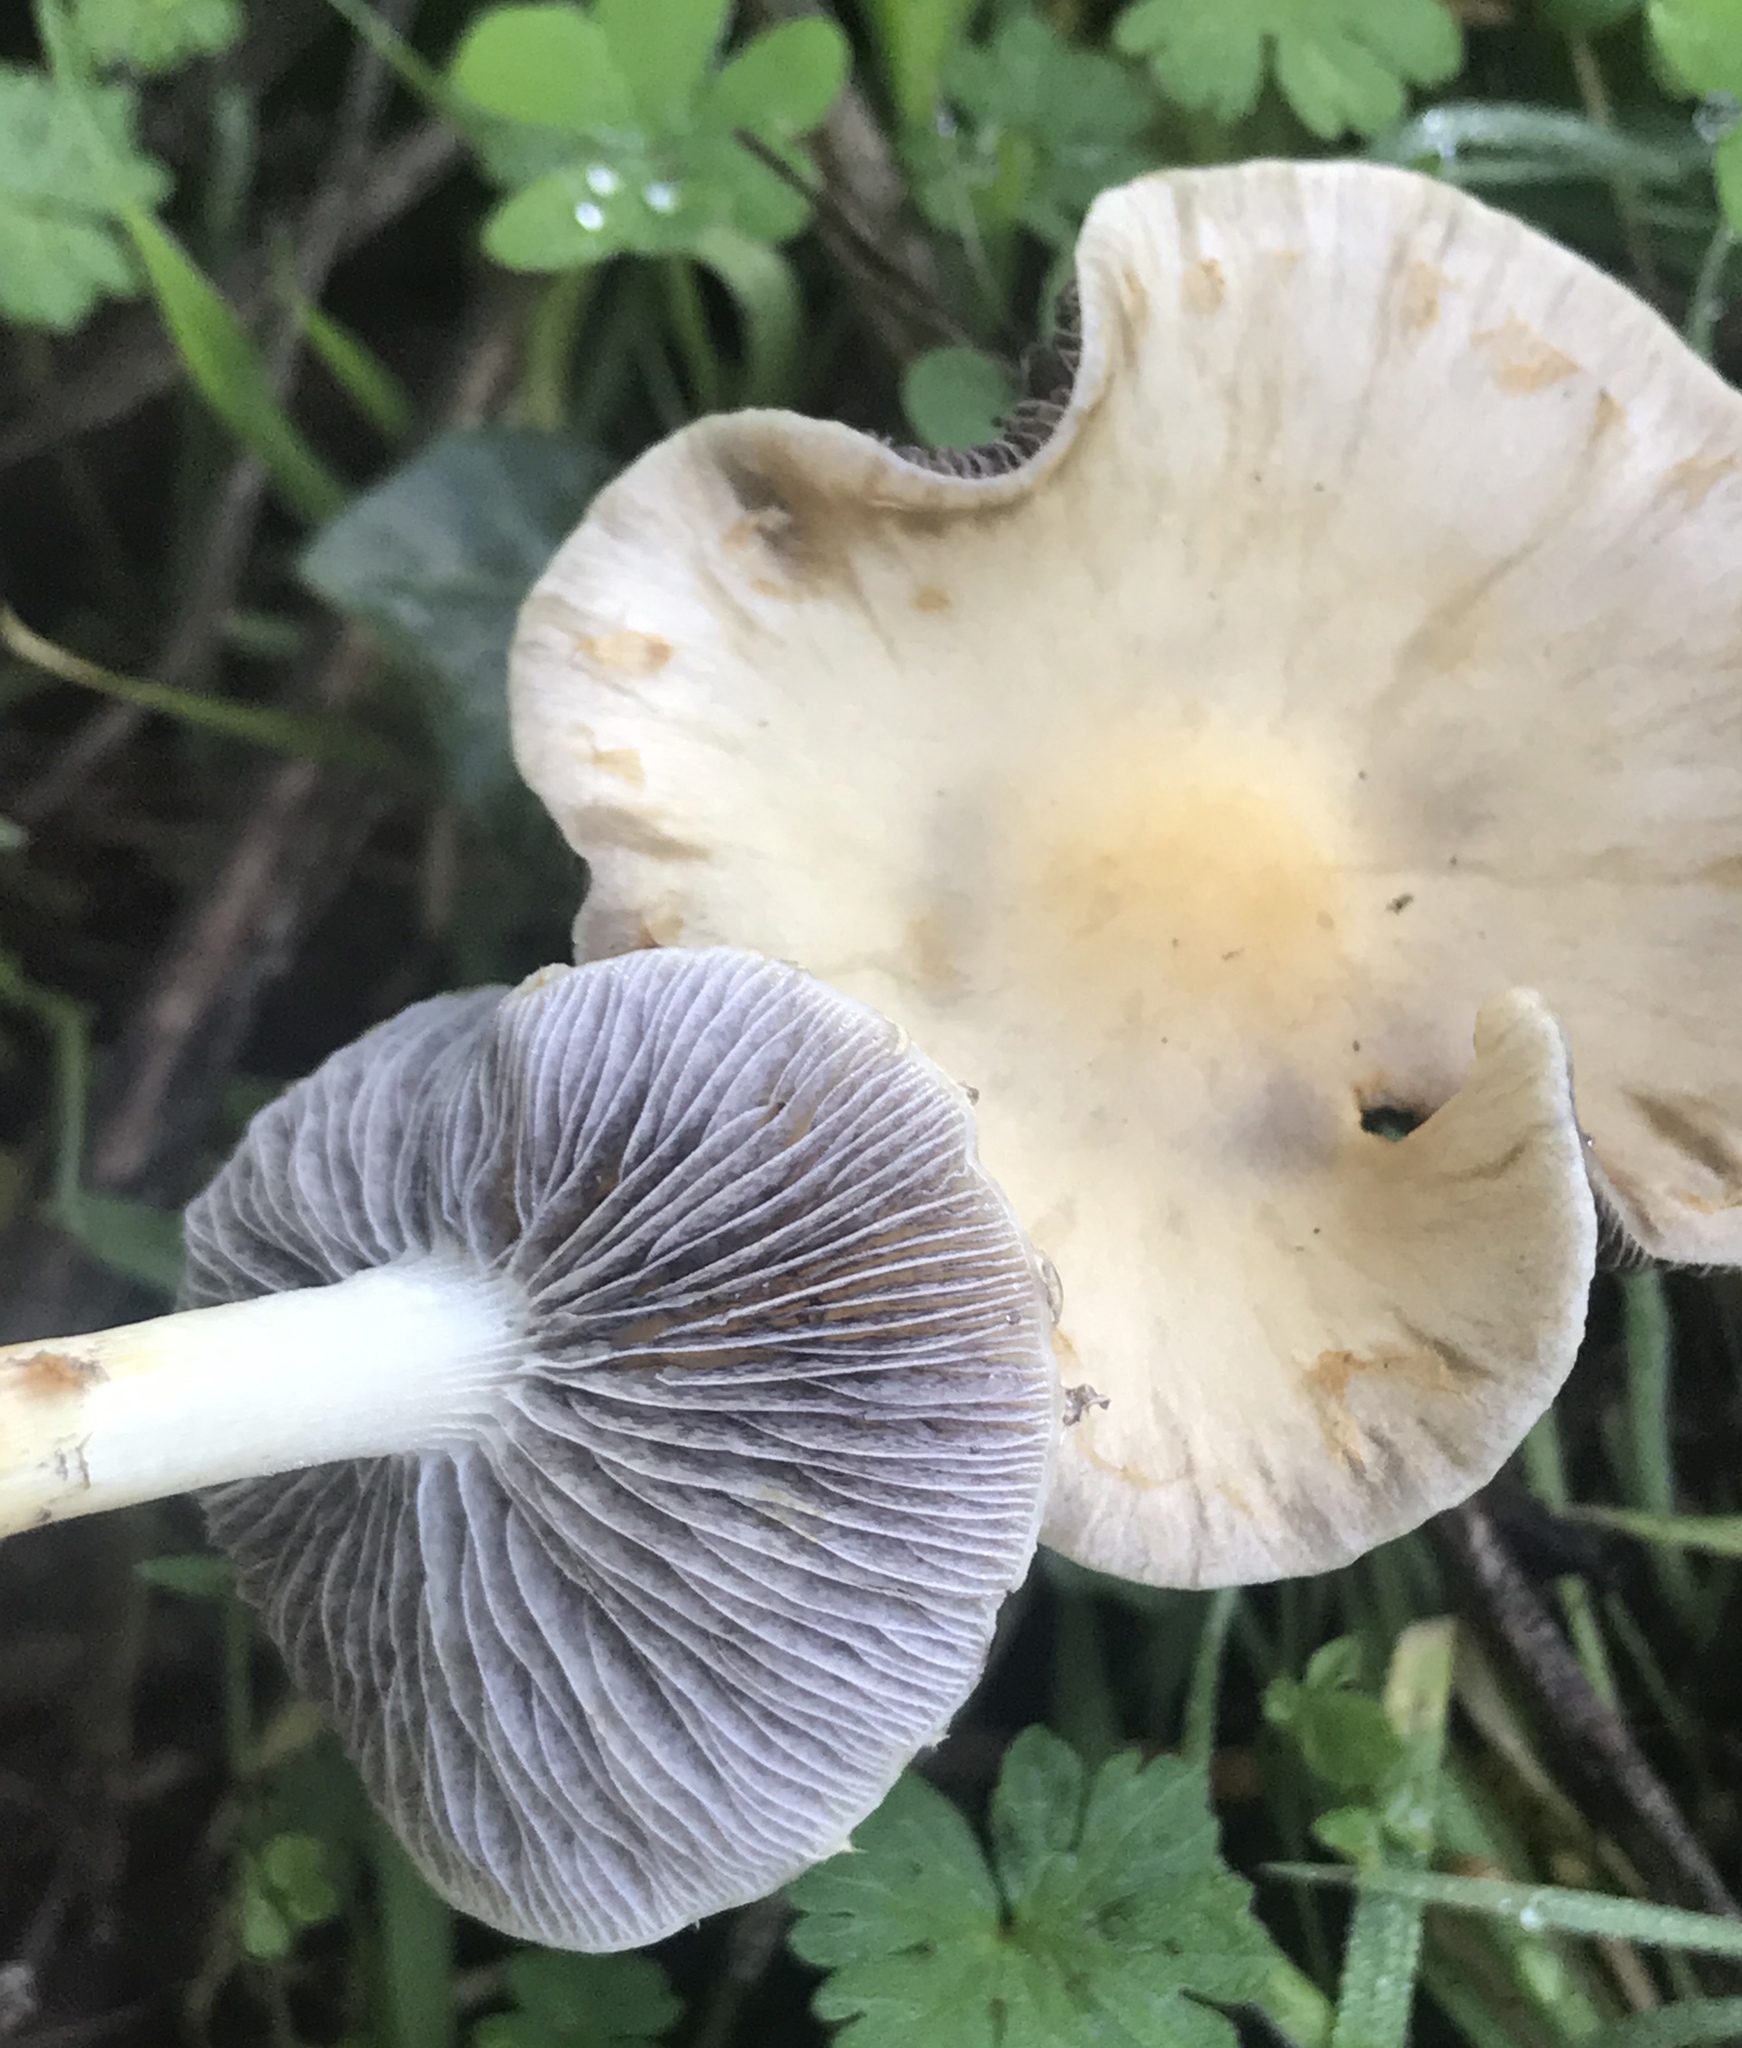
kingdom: Fungi
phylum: Basidiomycota
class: Agaricomycetes
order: Agaricales
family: Strophariaceae
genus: Leratiomyces
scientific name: Leratiomyces percevalii
